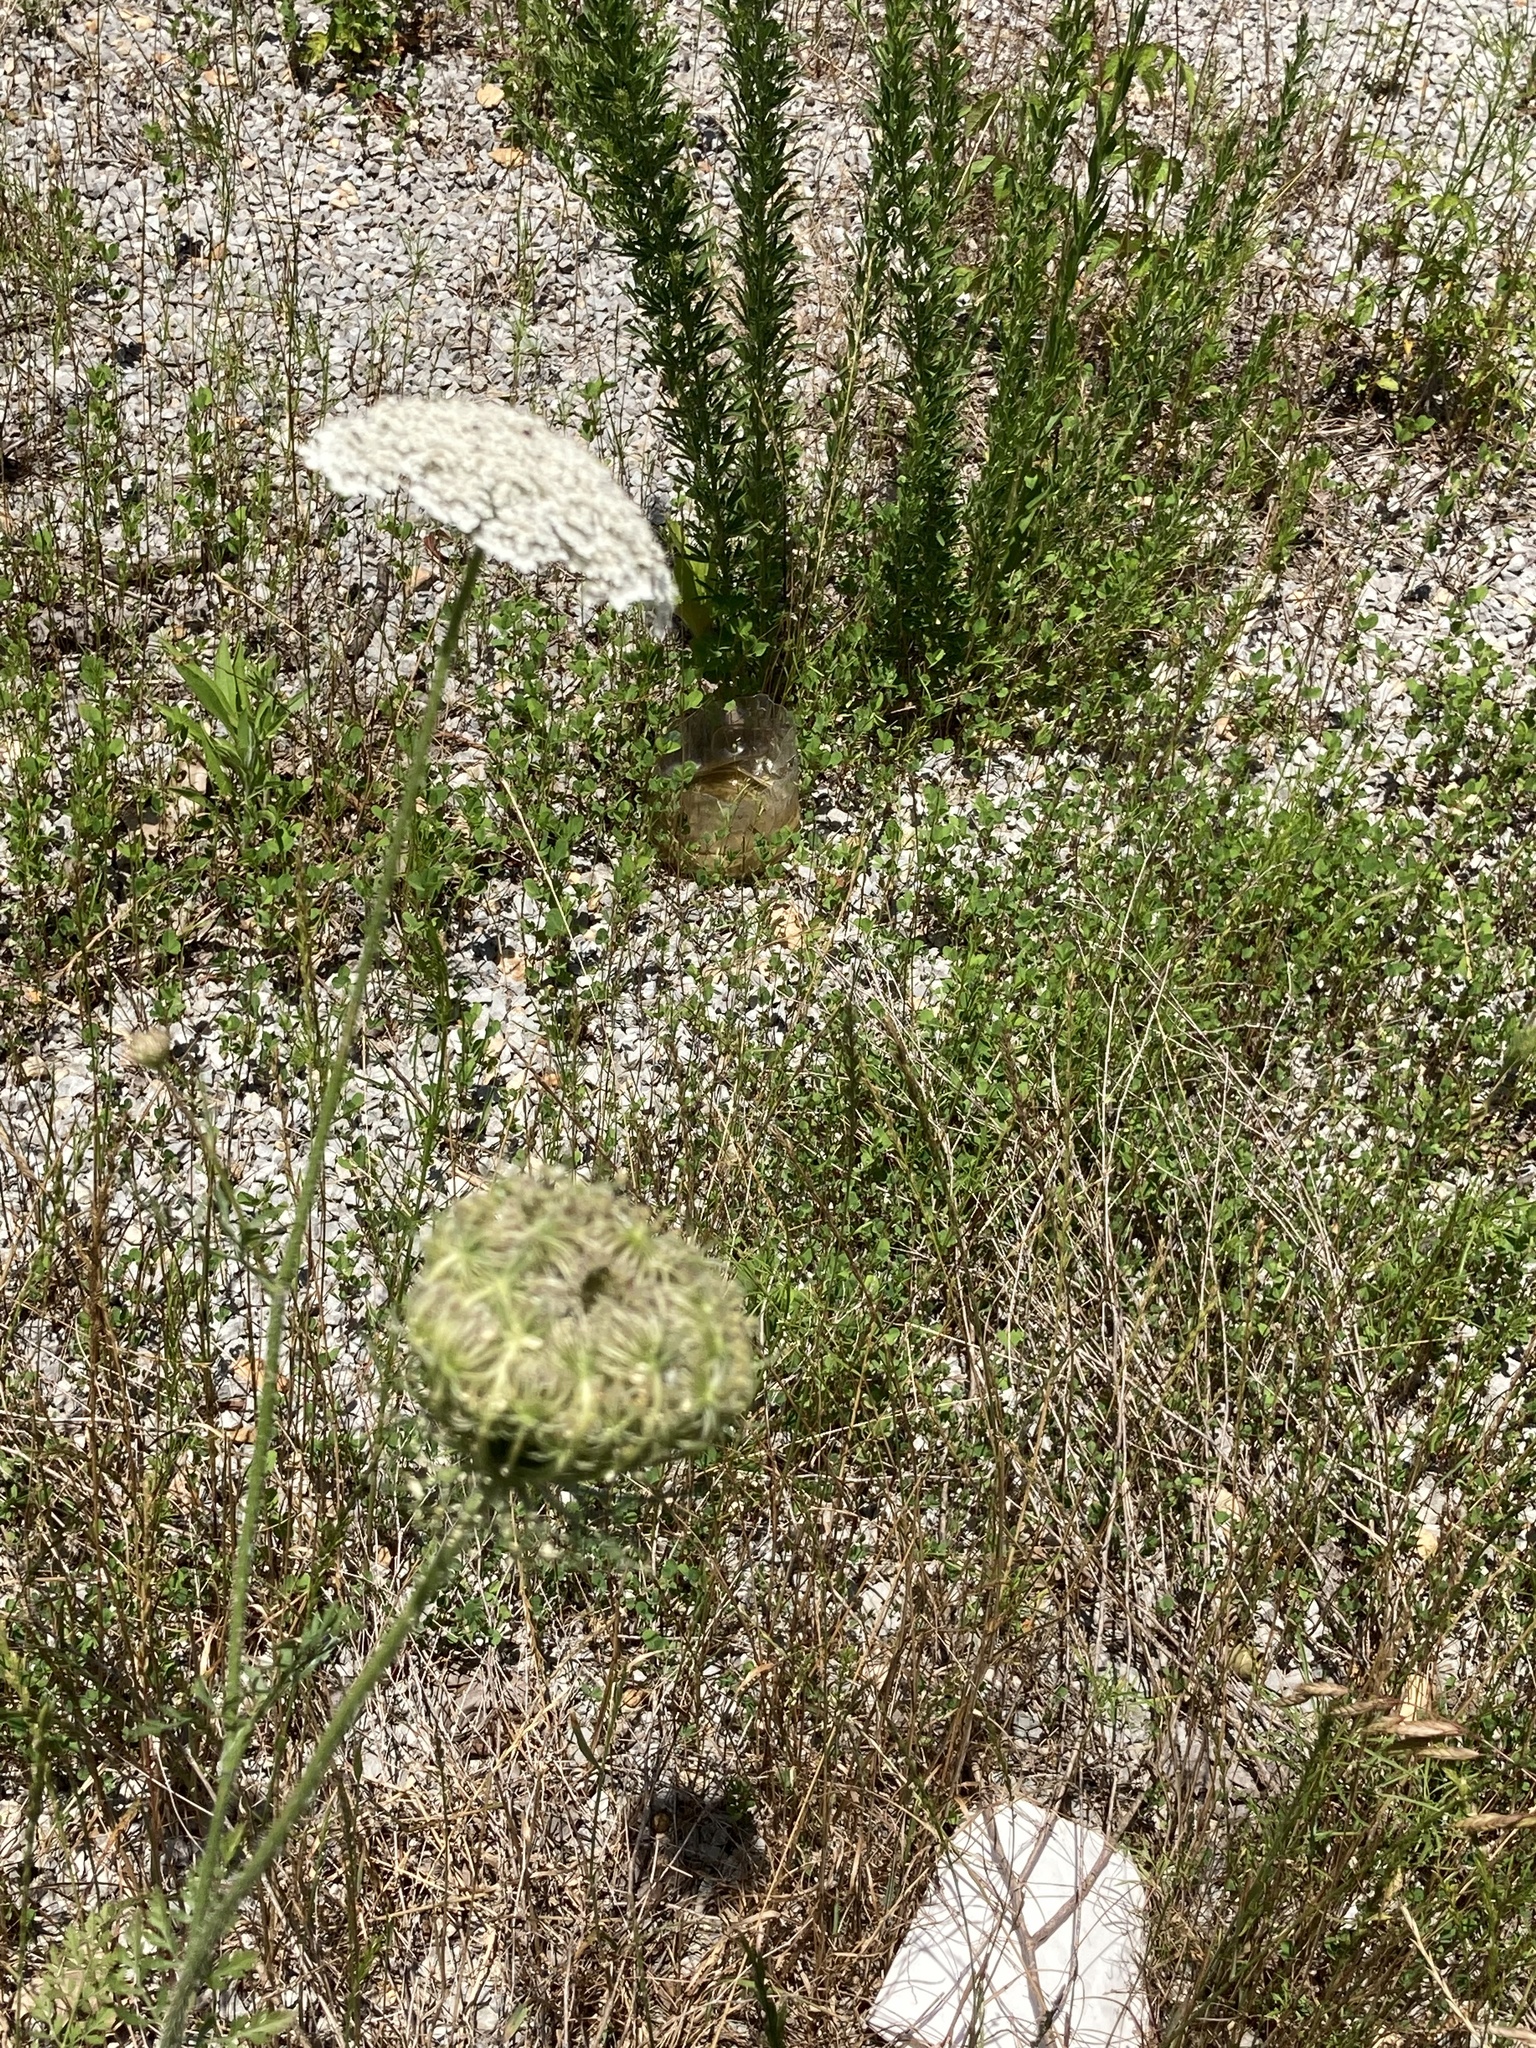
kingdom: Plantae
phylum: Tracheophyta
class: Magnoliopsida
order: Apiales
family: Apiaceae
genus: Daucus
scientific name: Daucus carota
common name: Wild carrot
